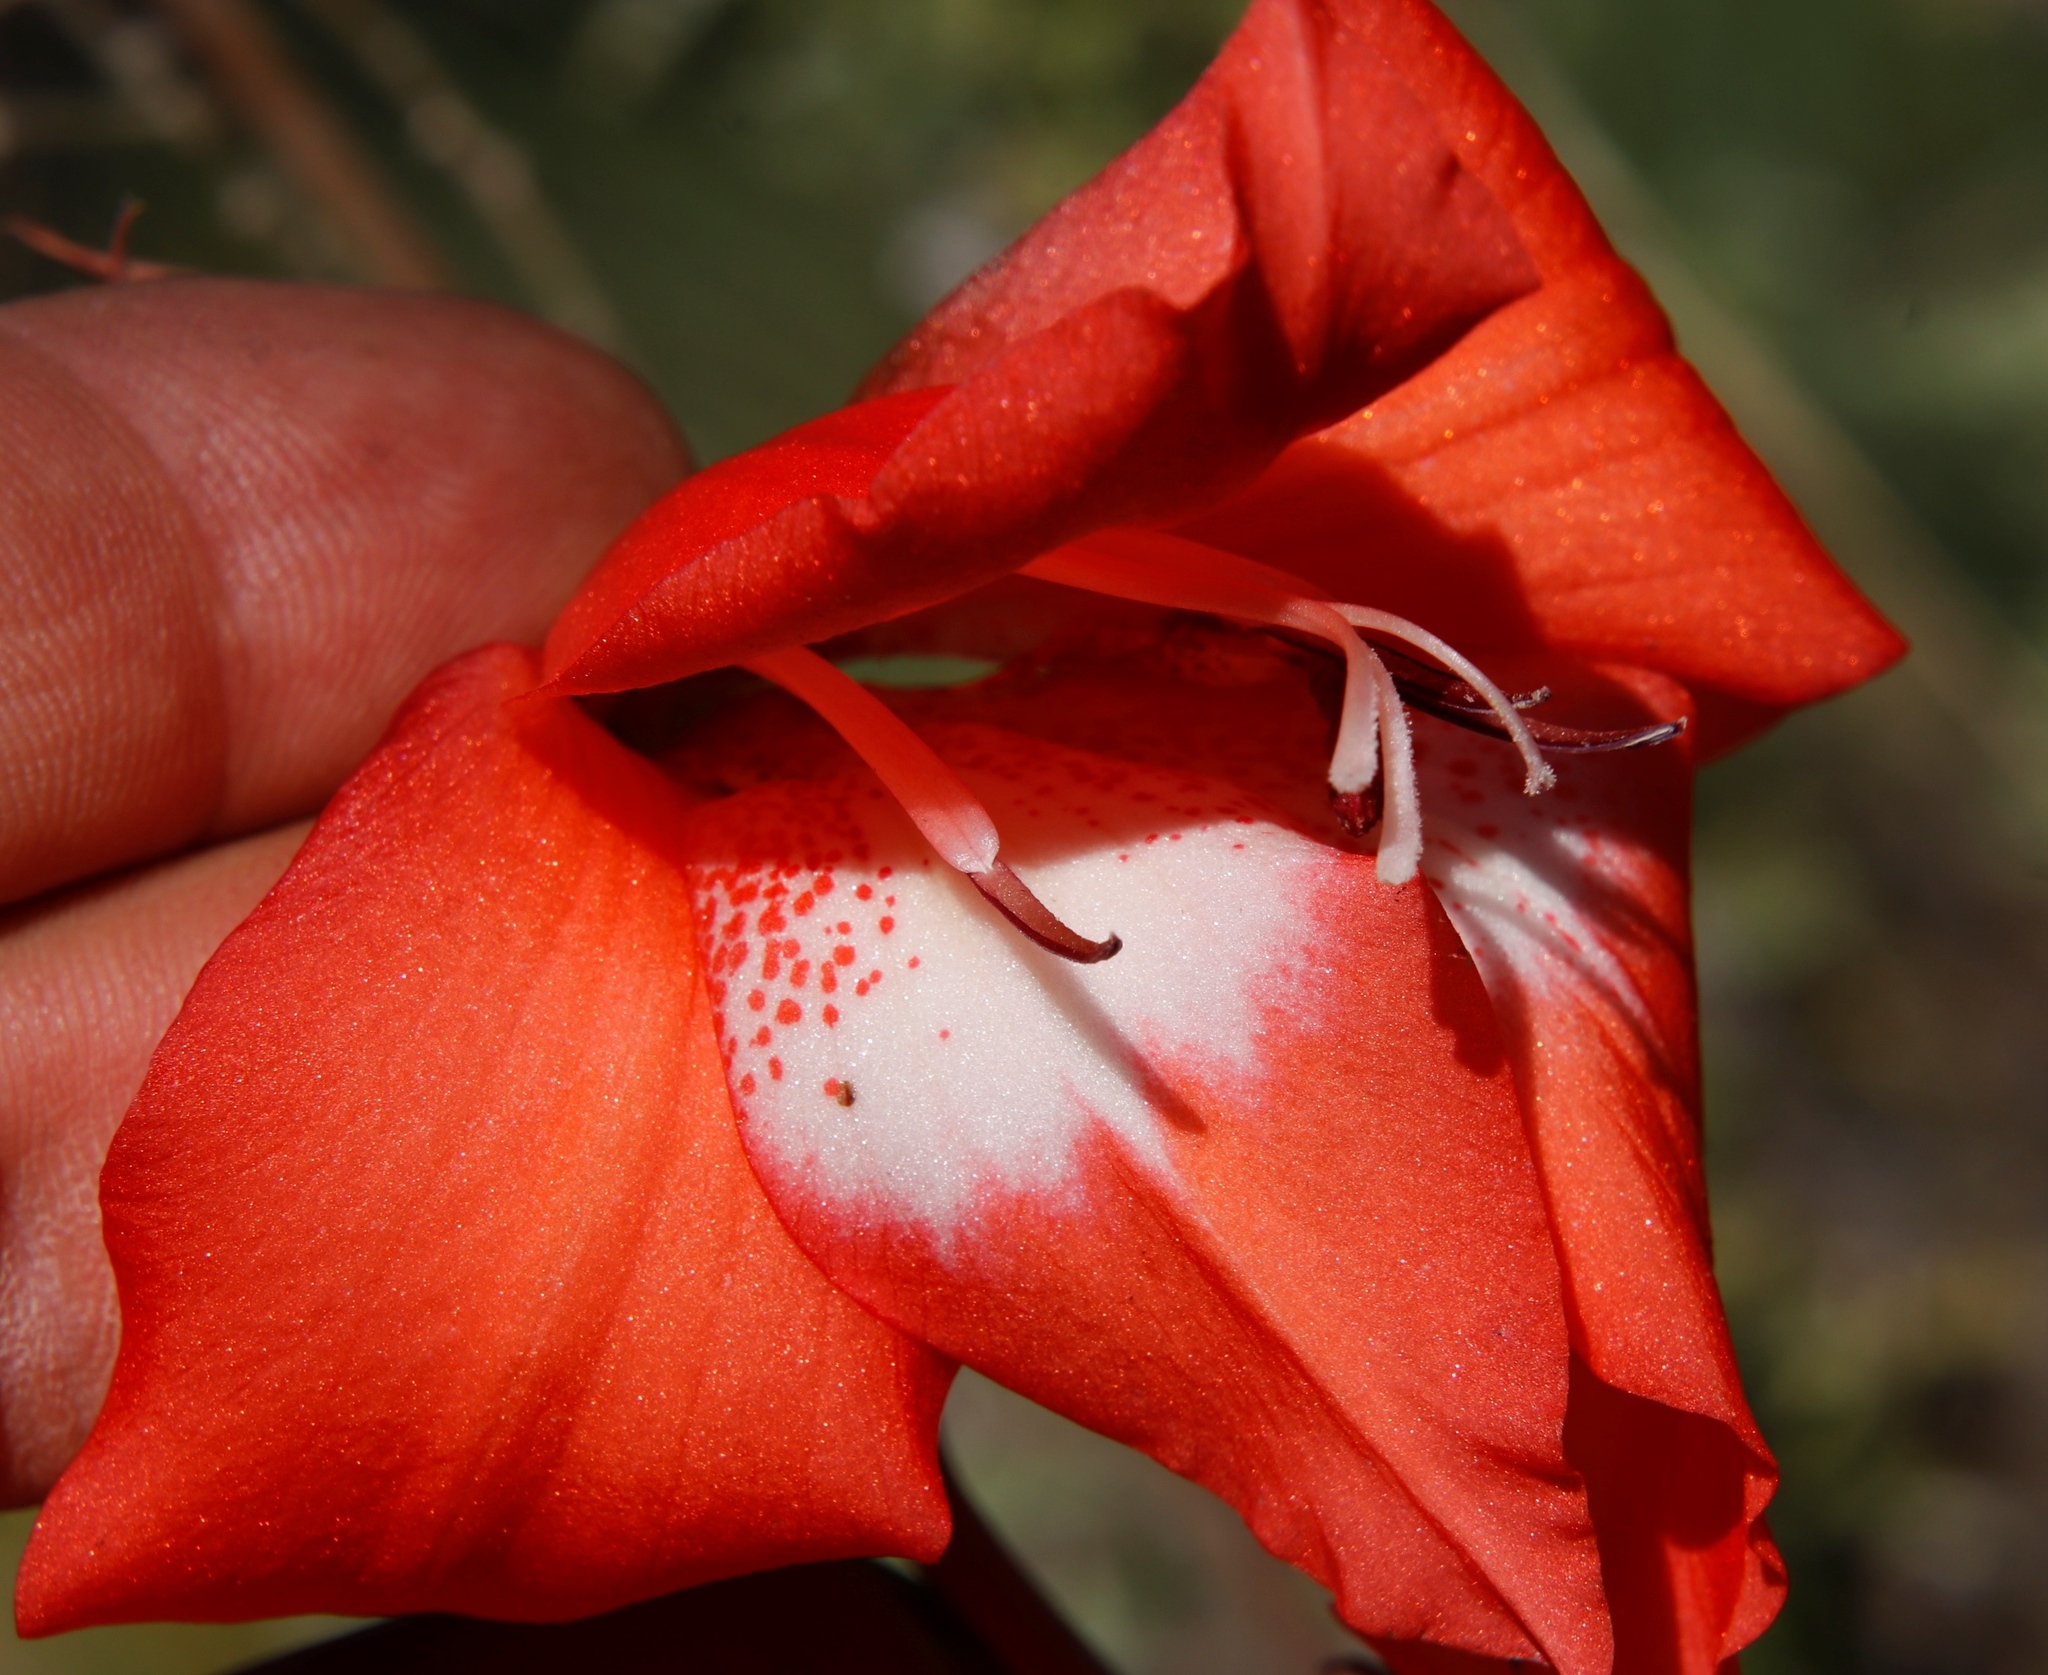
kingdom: Plantae
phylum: Tracheophyta
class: Liliopsida
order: Asparagales
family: Iridaceae
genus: Gladiolus
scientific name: Gladiolus saundersii
